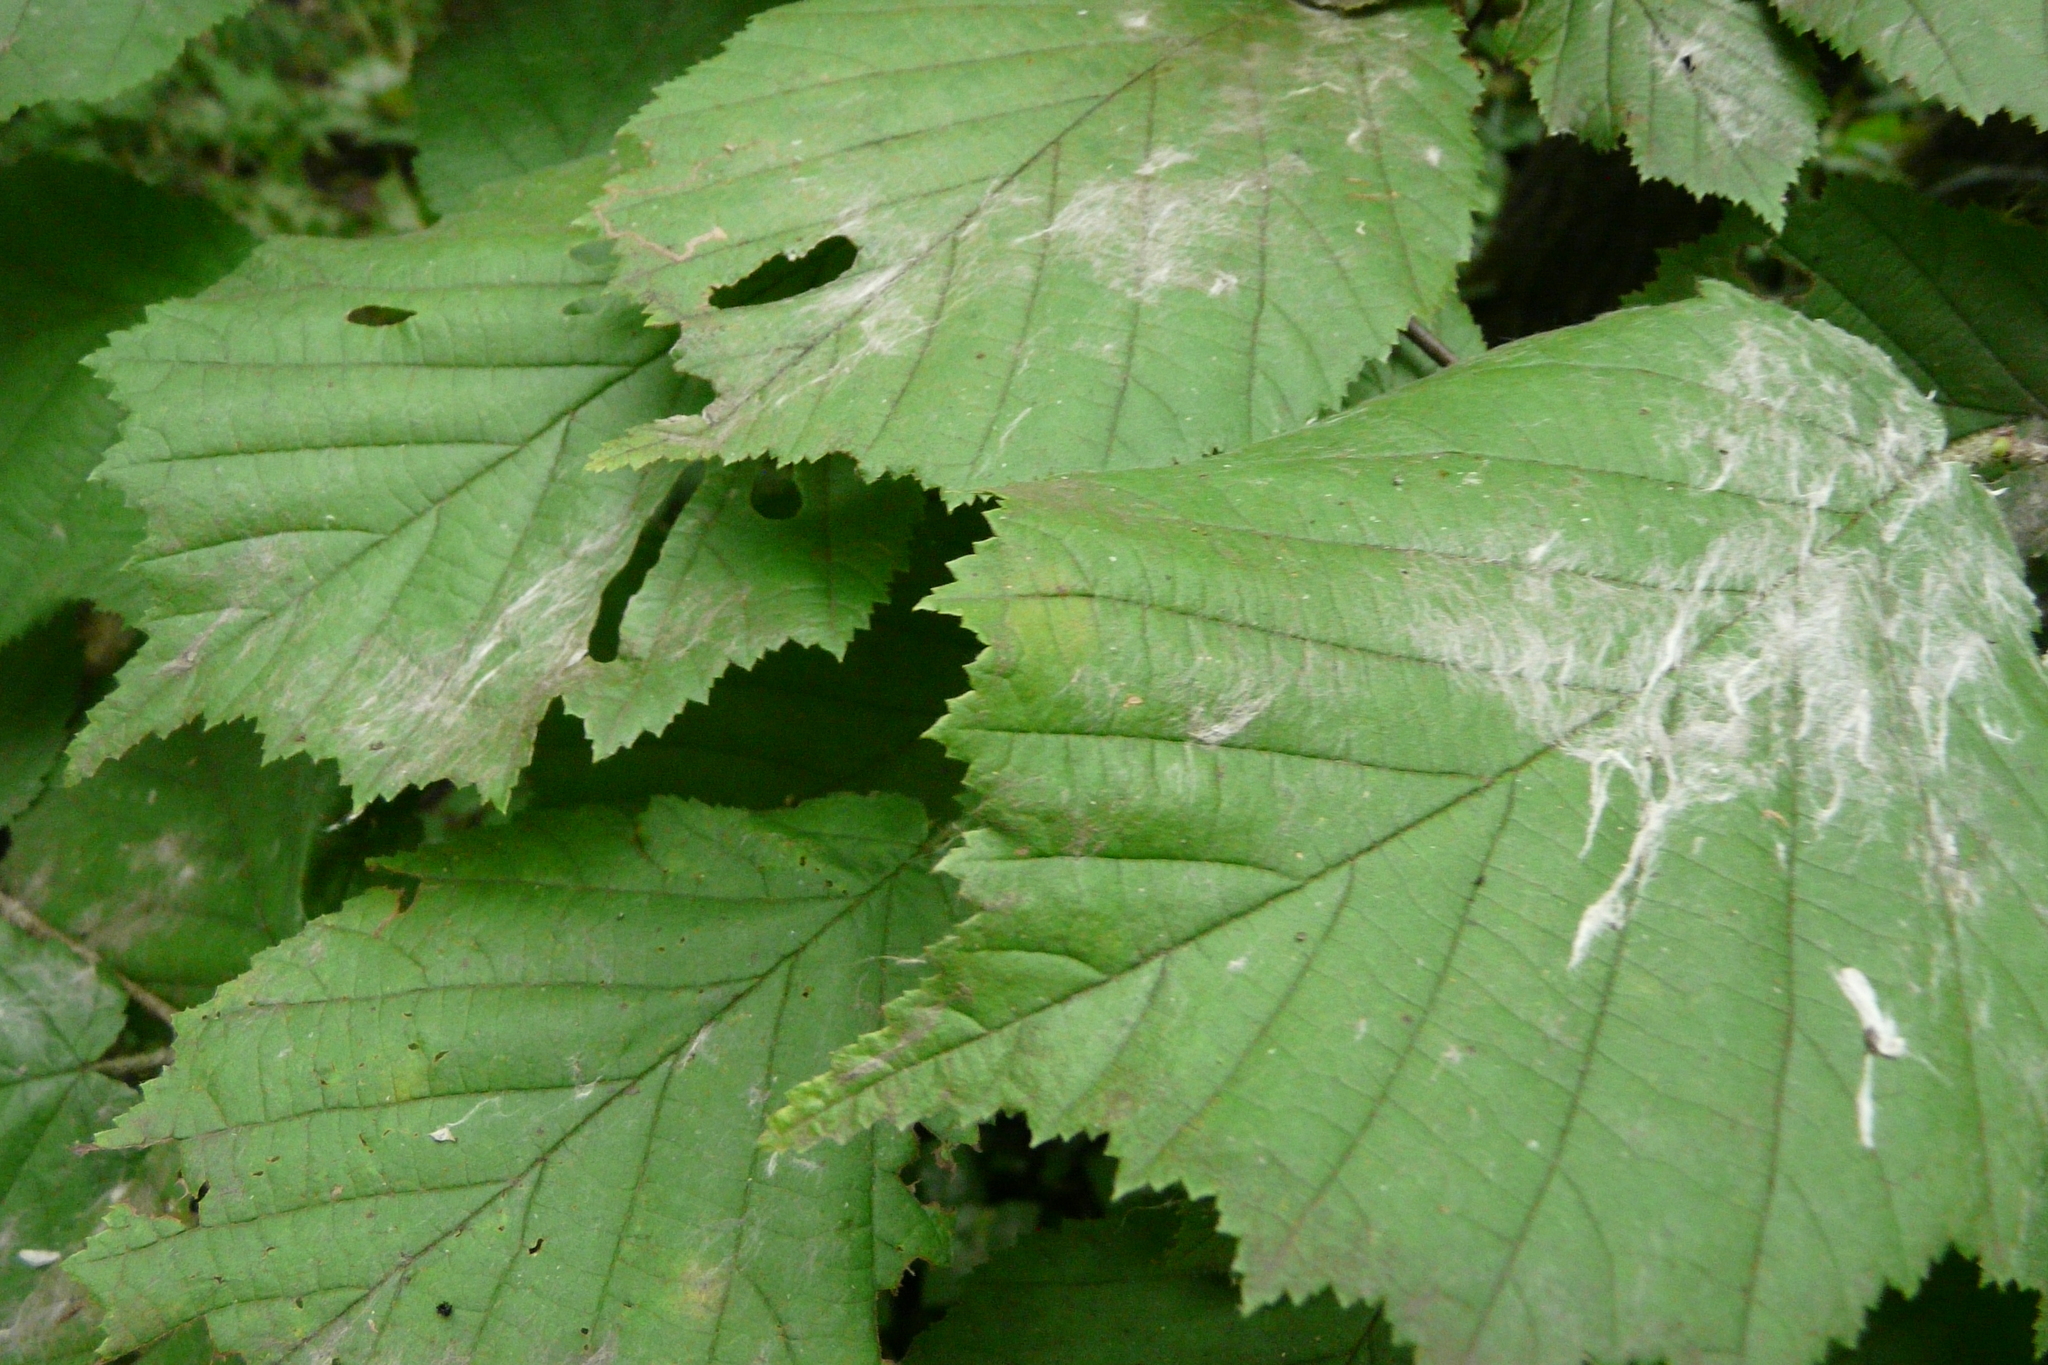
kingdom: Plantae
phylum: Tracheophyta
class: Magnoliopsida
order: Fagales
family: Betulaceae
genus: Corylus
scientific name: Corylus avellana
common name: European hazel
